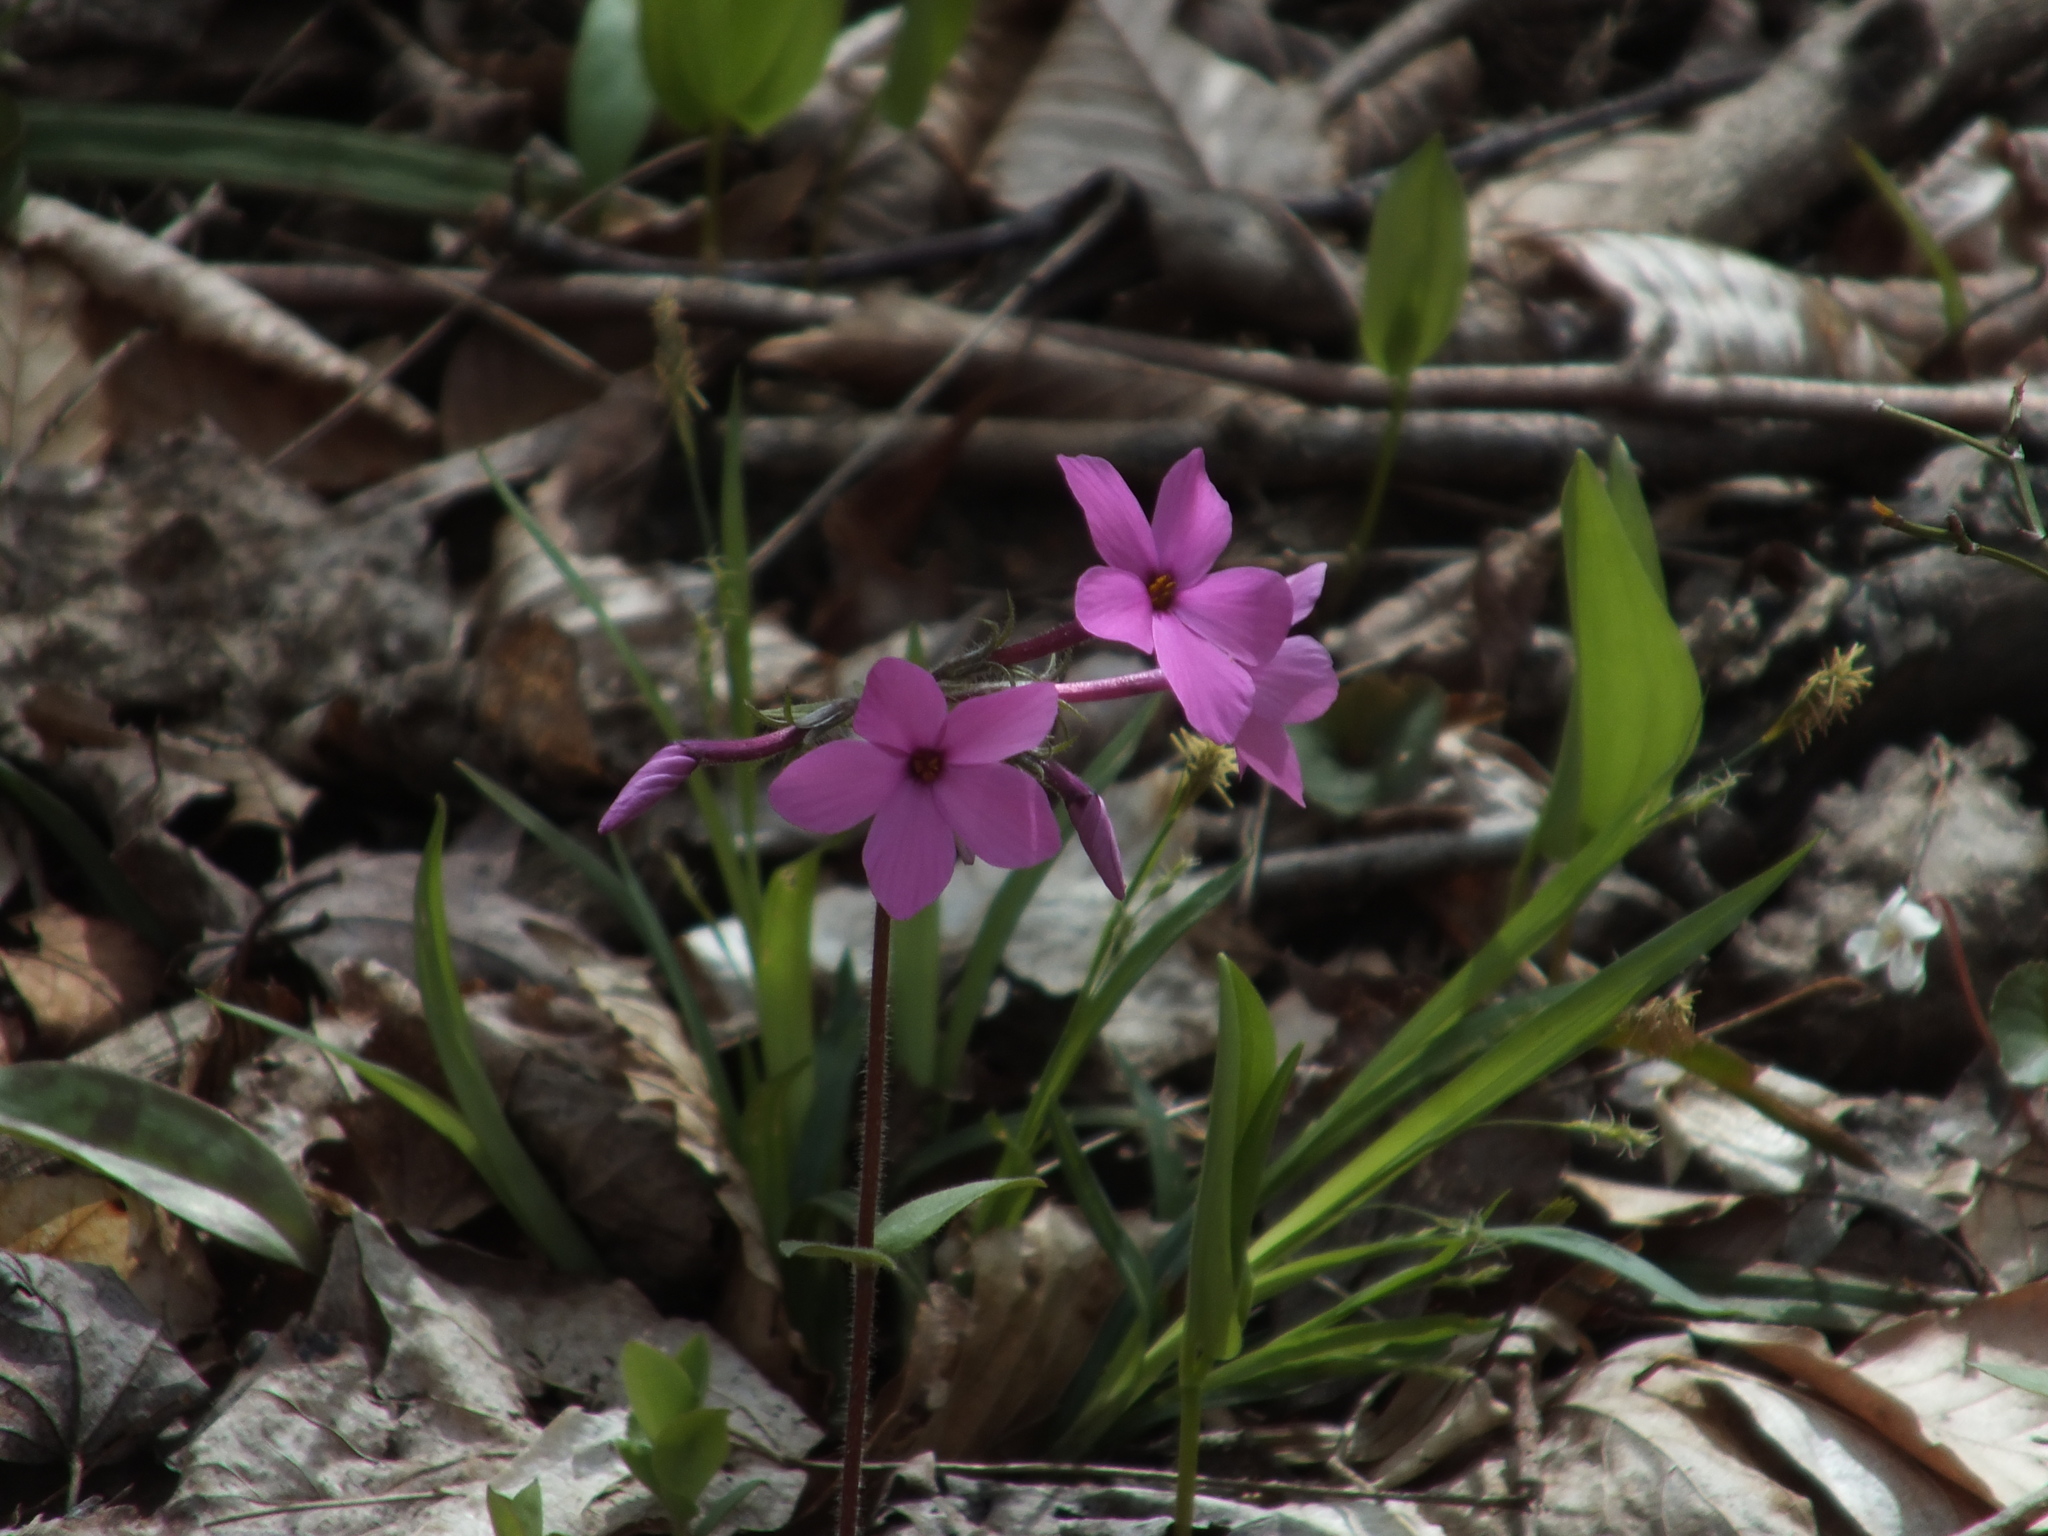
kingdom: Plantae
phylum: Tracheophyta
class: Magnoliopsida
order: Ericales
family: Polemoniaceae
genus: Phlox
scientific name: Phlox stolonifera
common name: Creeping phlox
